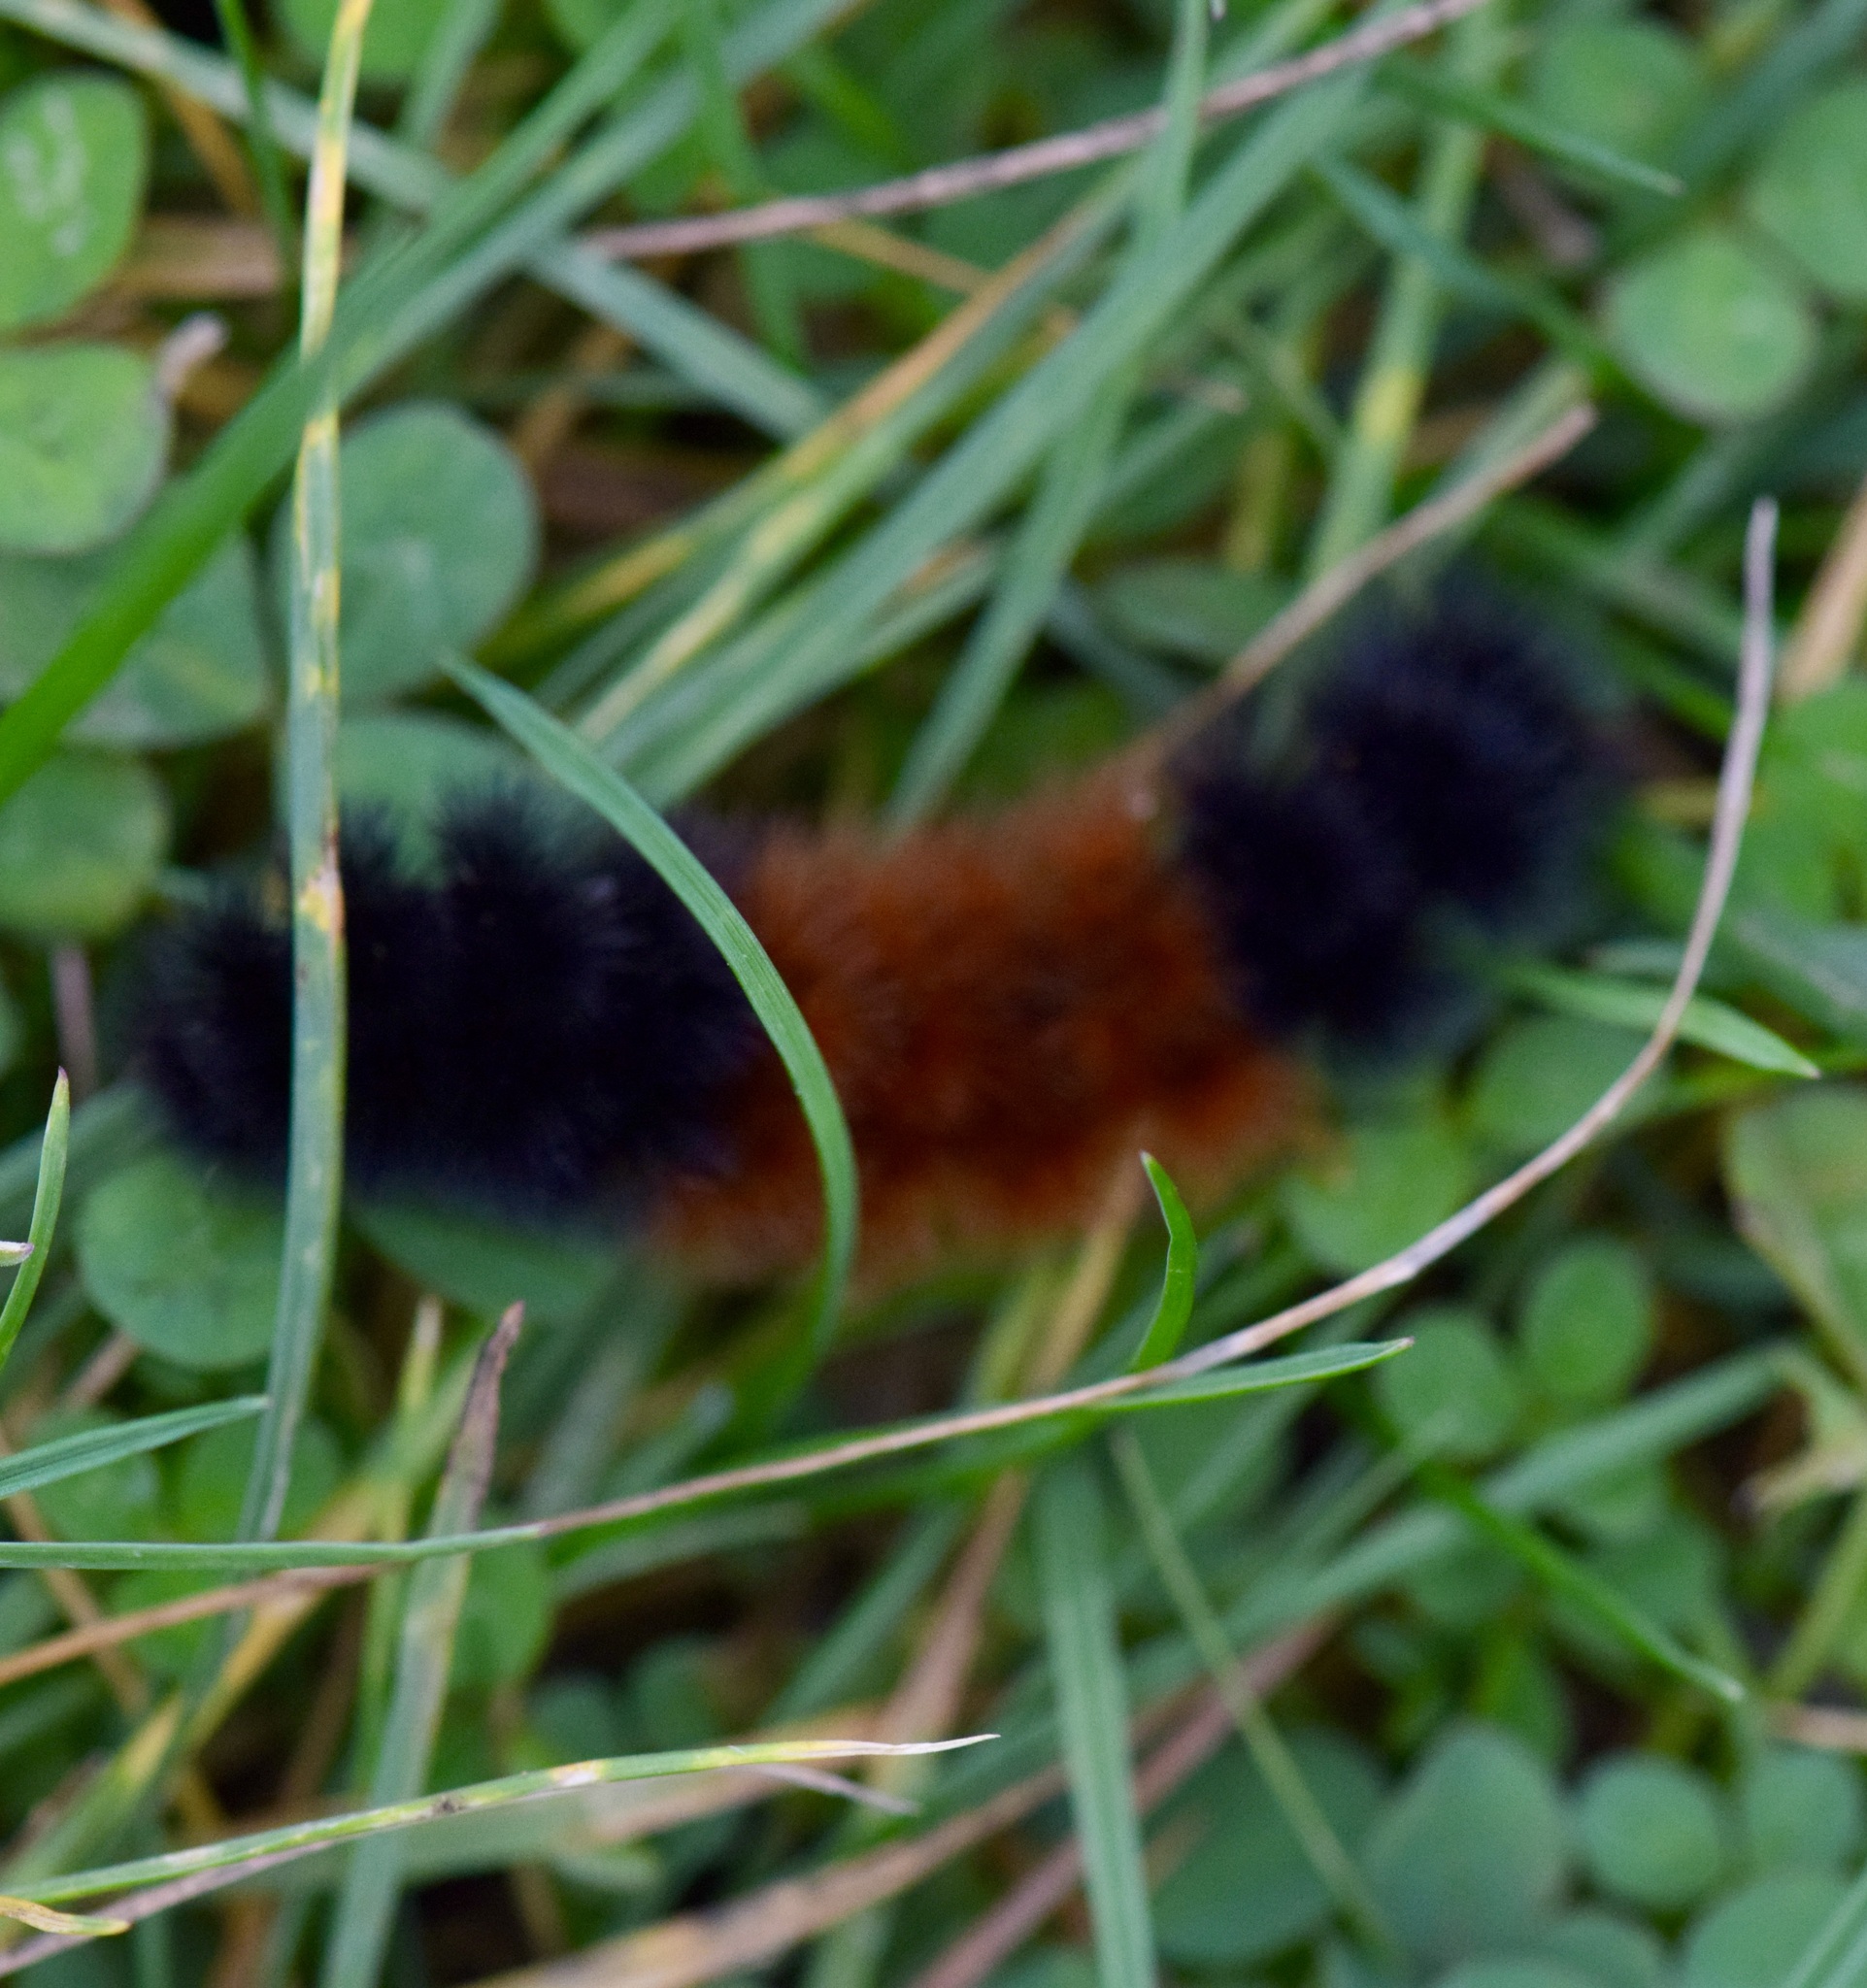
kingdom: Animalia
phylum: Arthropoda
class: Insecta
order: Lepidoptera
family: Erebidae
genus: Pyrrharctia
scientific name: Pyrrharctia isabella
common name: Isabella tiger moth
